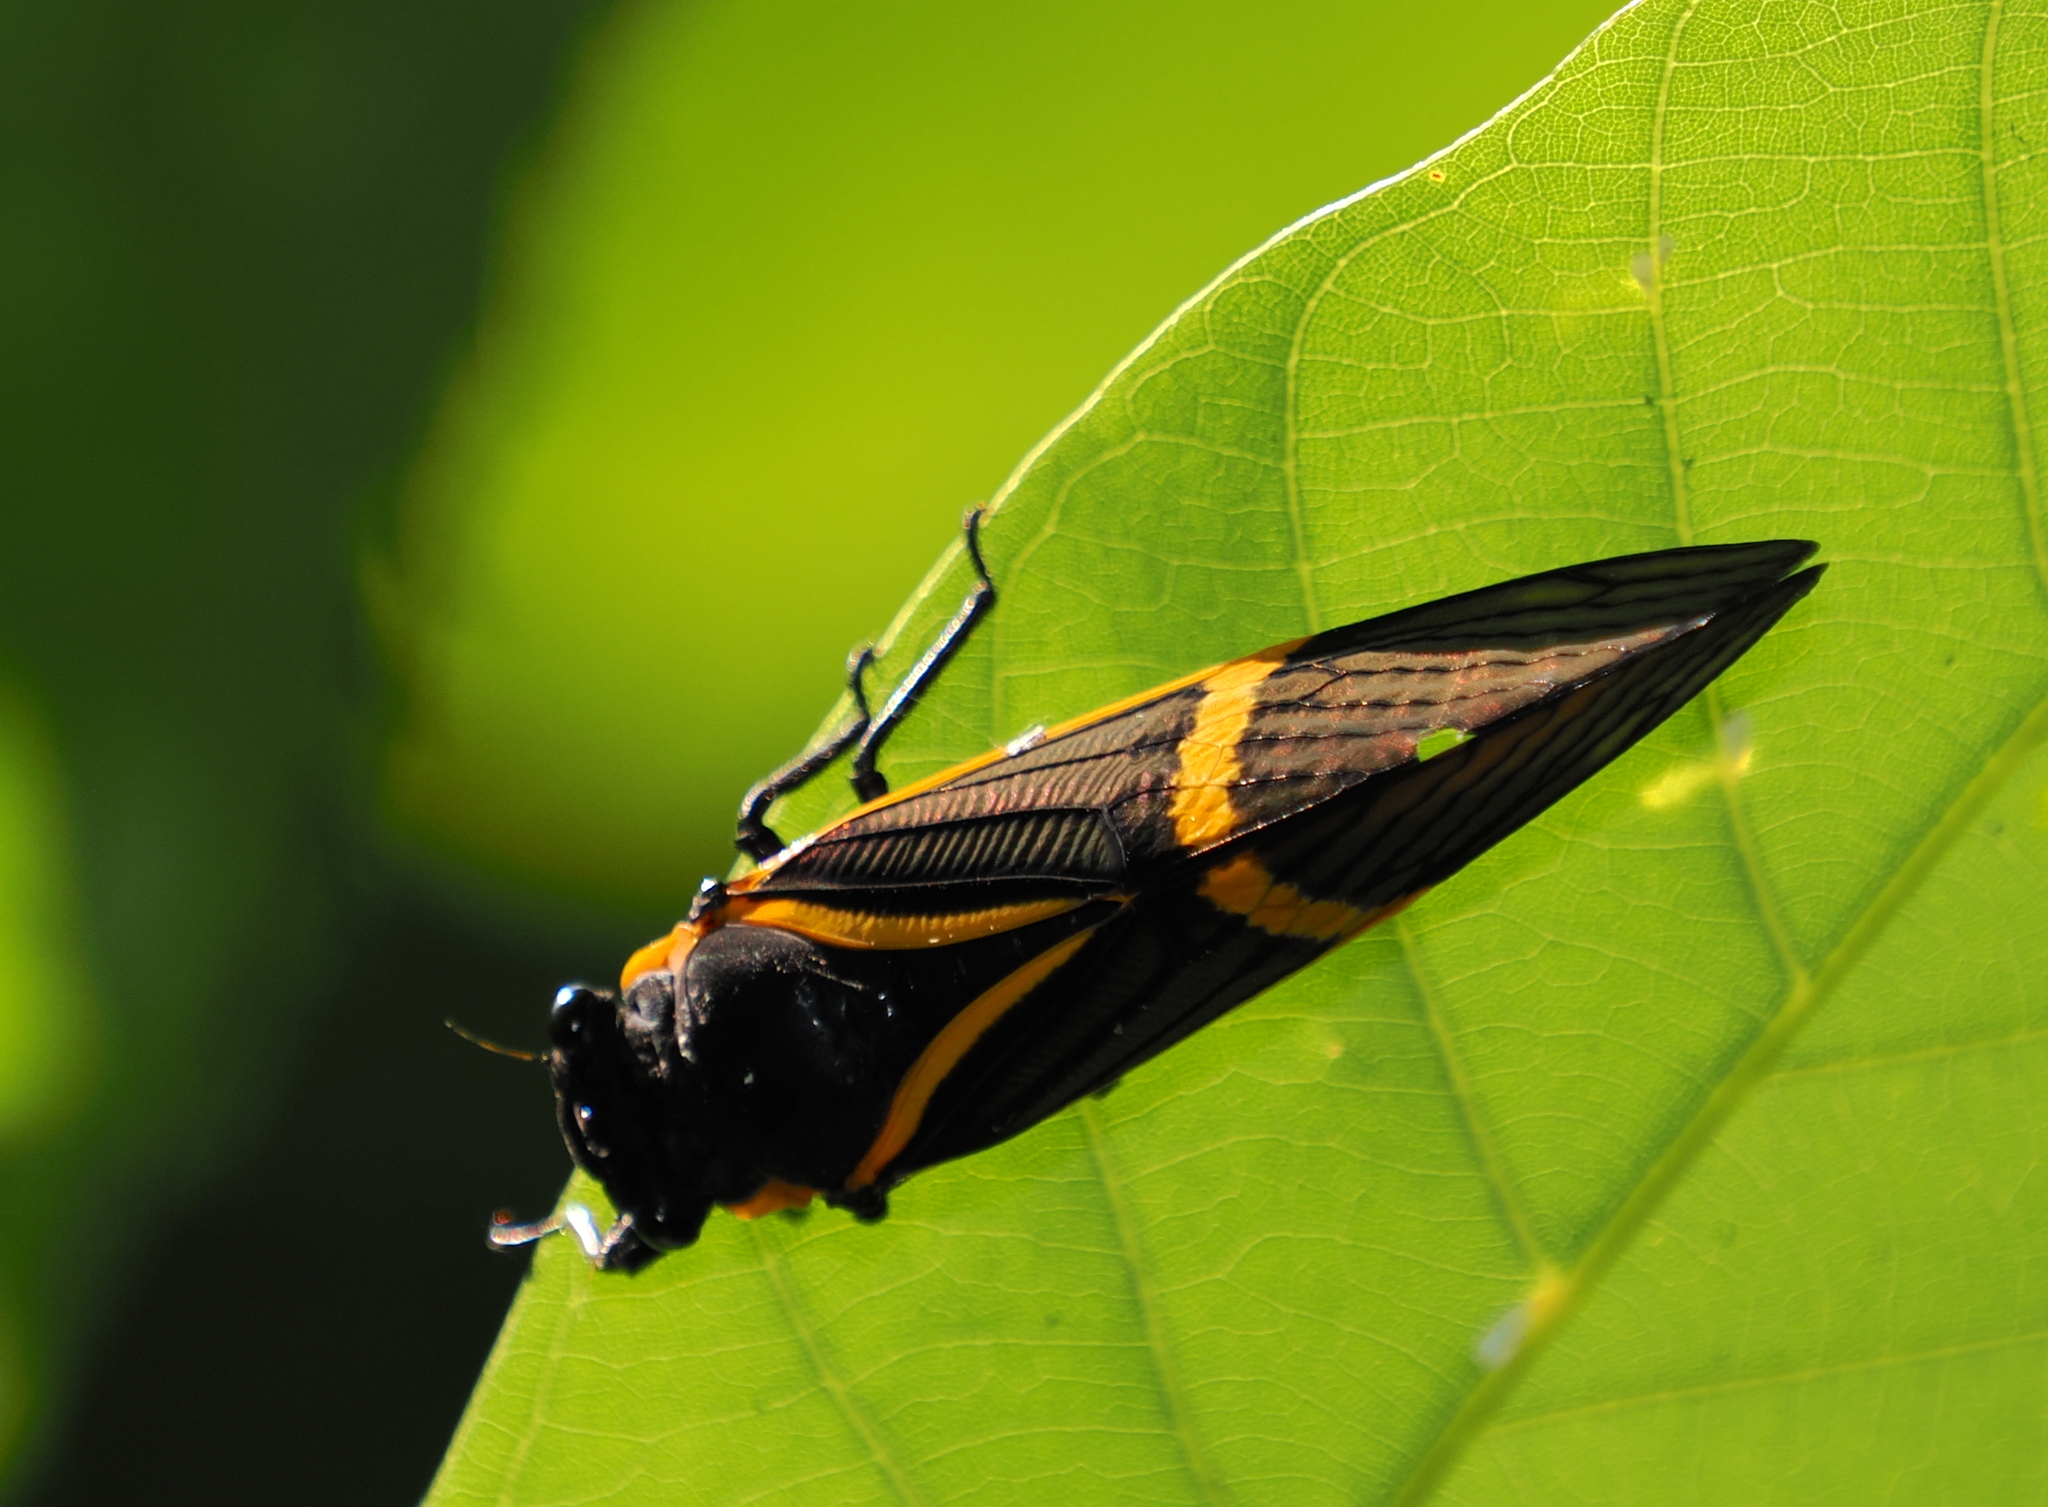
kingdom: Animalia
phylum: Arthropoda
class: Insecta
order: Hemiptera
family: Cicadidae
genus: Becquartina
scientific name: Becquartina electa
